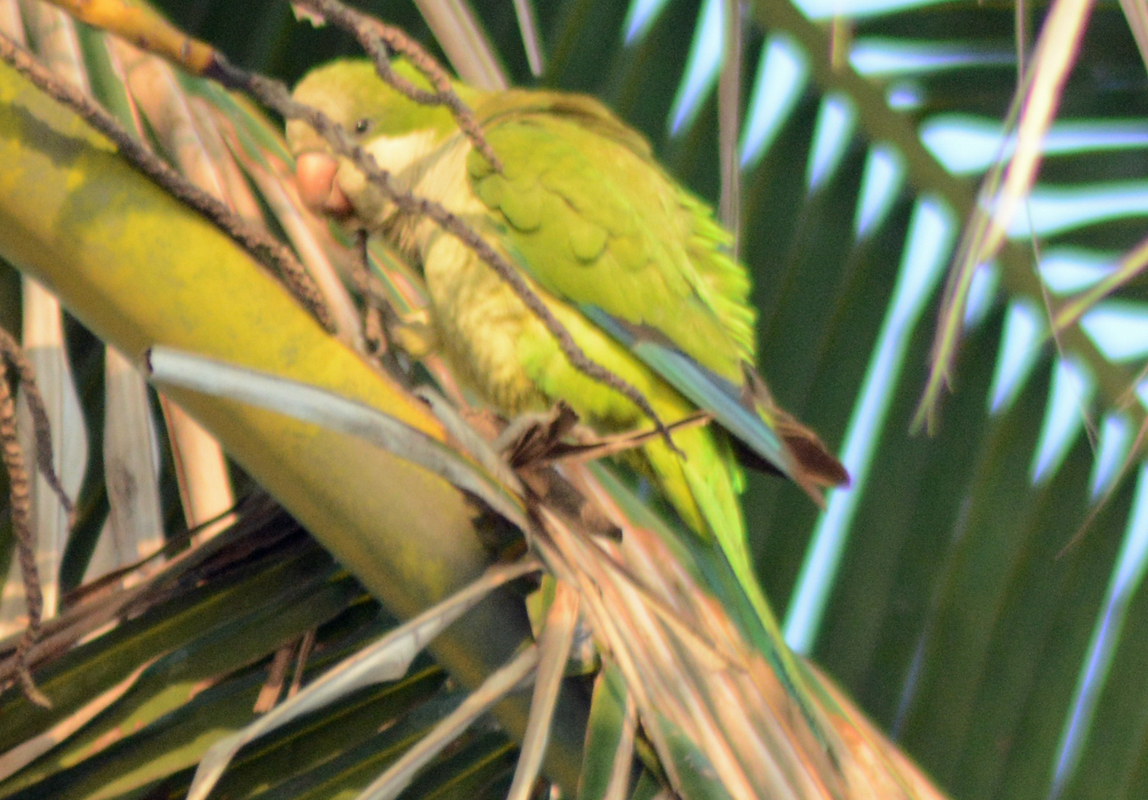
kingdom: Animalia
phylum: Chordata
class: Aves
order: Psittaciformes
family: Psittacidae
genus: Myiopsitta
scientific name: Myiopsitta monachus
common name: Monk parakeet
